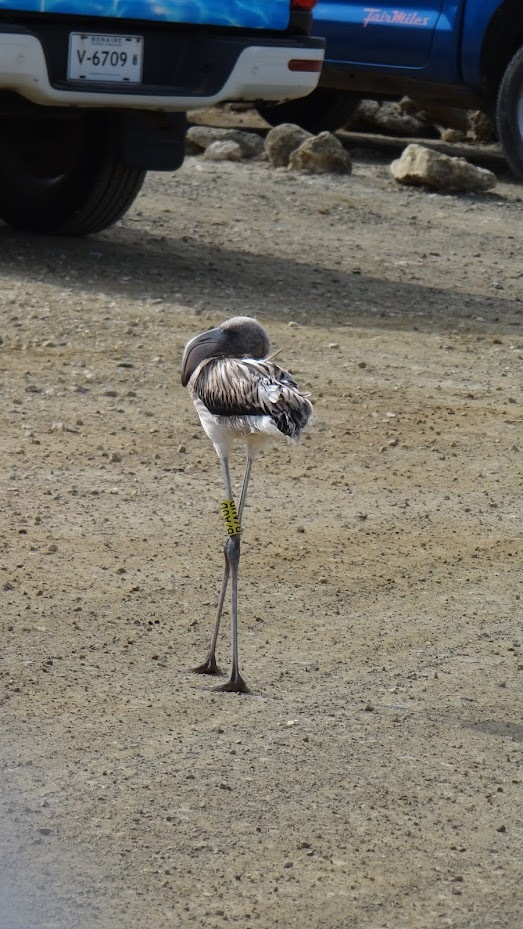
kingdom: Animalia
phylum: Chordata
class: Aves
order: Phoenicopteriformes
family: Phoenicopteridae
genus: Phoenicopterus
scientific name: Phoenicopterus ruber
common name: American flamingo
